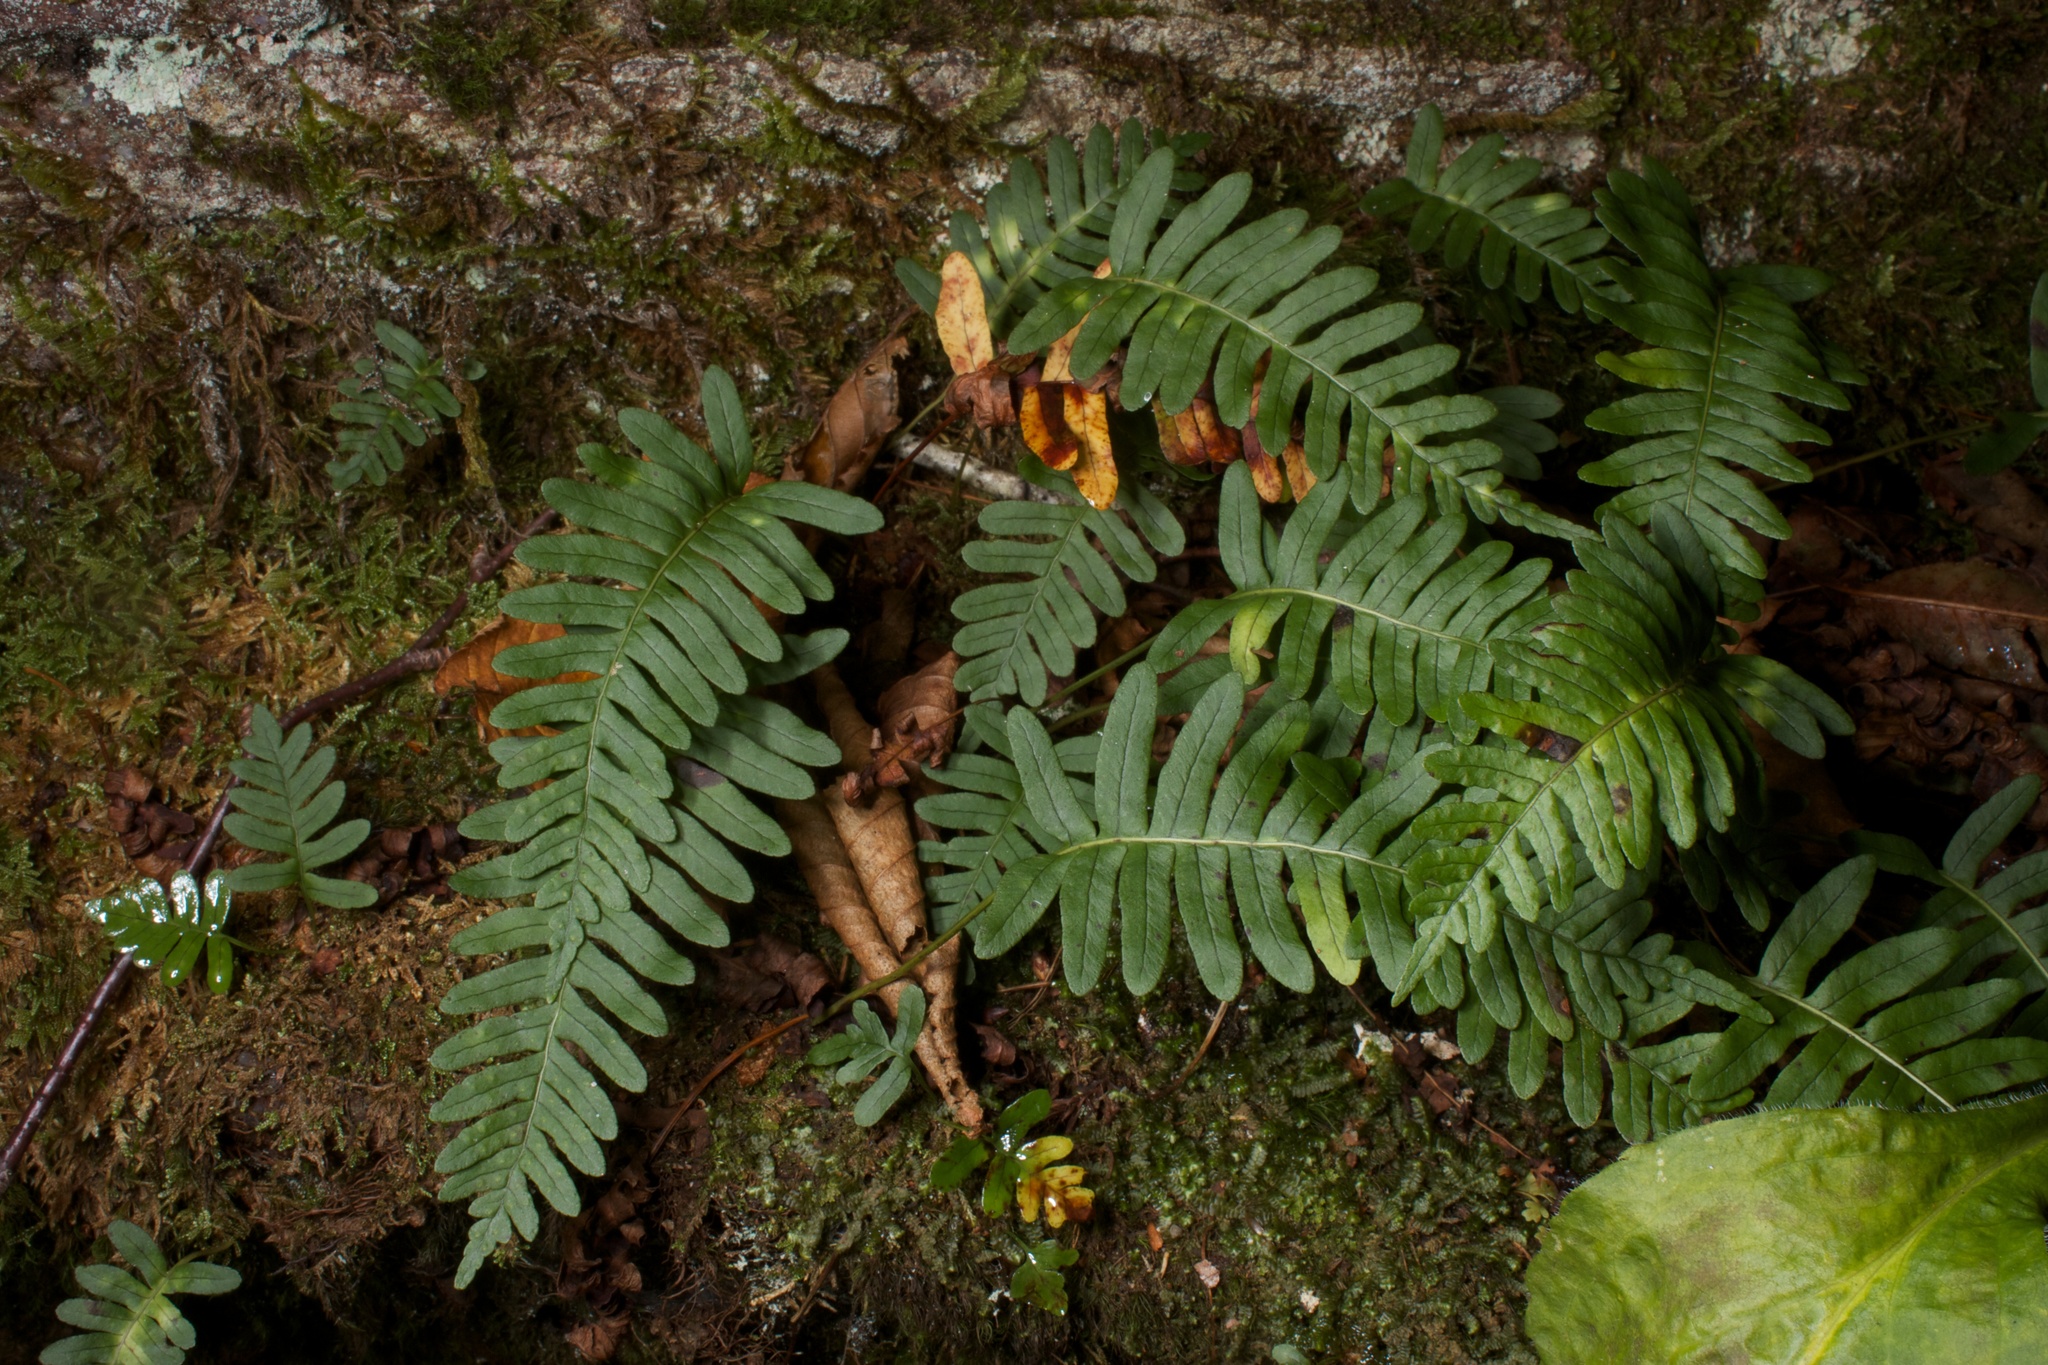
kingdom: Plantae
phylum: Tracheophyta
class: Polypodiopsida
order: Polypodiales
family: Polypodiaceae
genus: Polypodium
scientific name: Polypodium virginianum
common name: American wall fern
